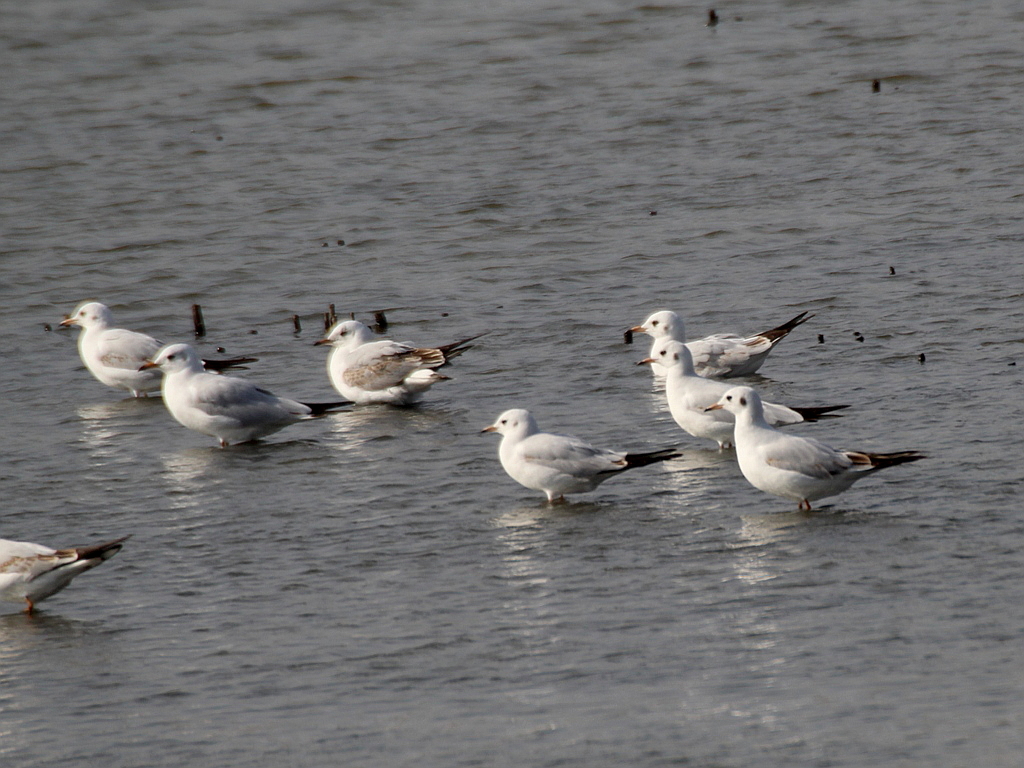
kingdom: Animalia
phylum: Chordata
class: Aves
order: Charadriiformes
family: Laridae
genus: Chroicocephalus
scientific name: Chroicocephalus ridibundus
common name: Black-headed gull
